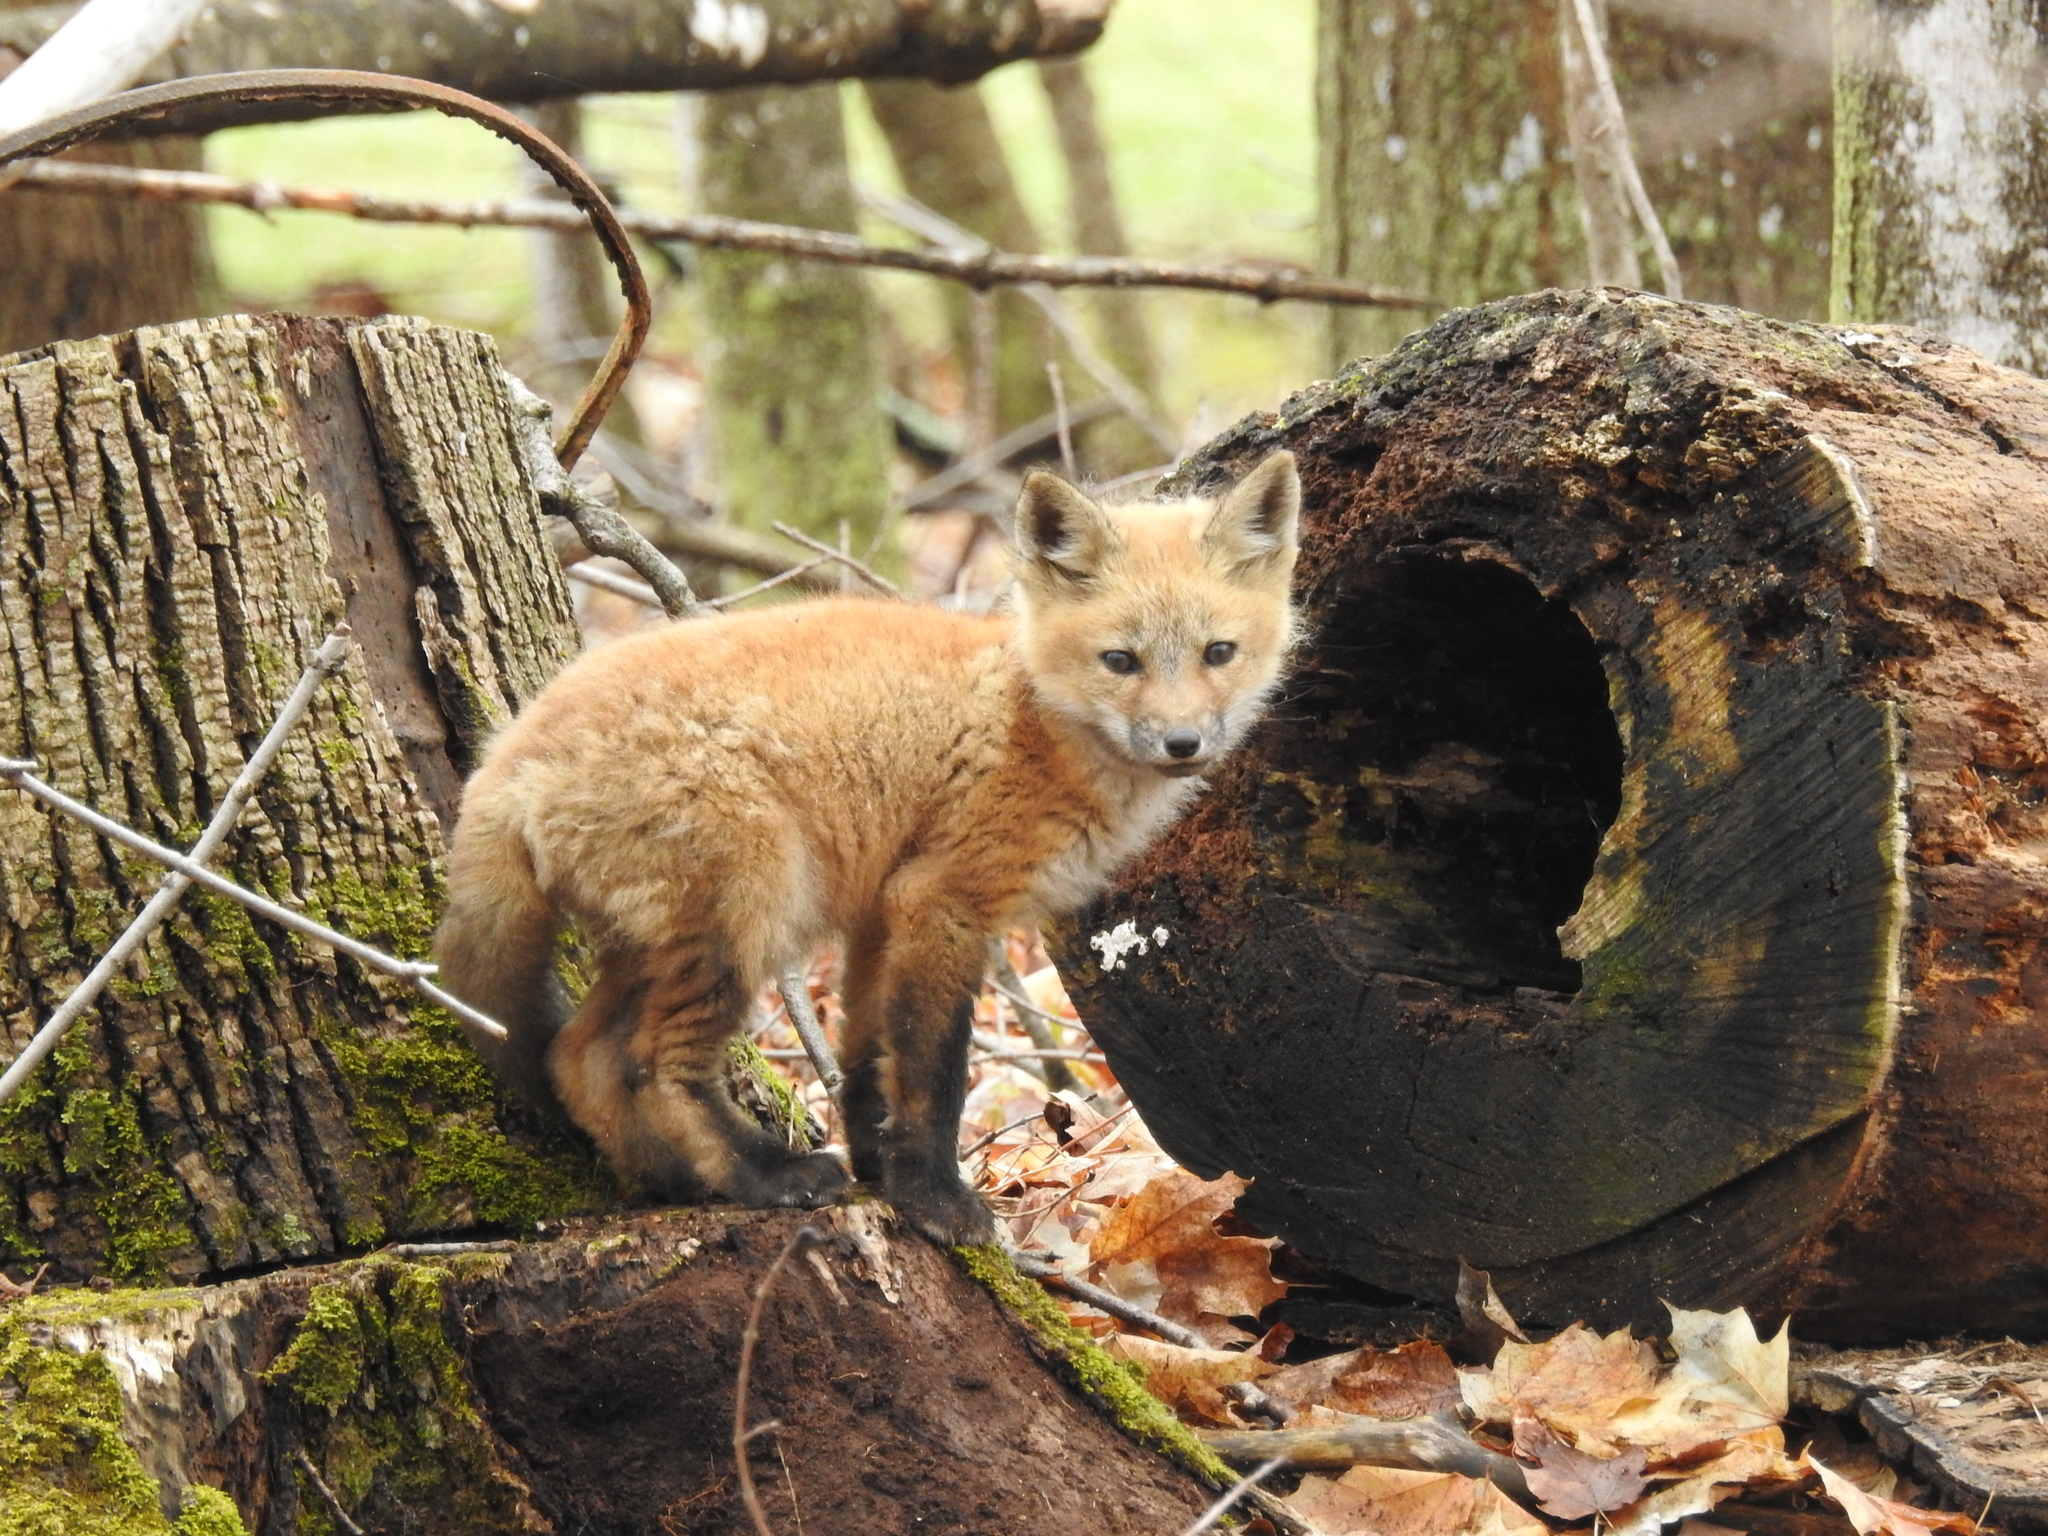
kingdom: Animalia
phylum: Chordata
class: Mammalia
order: Carnivora
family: Canidae
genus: Vulpes
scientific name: Vulpes vulpes
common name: Red fox
